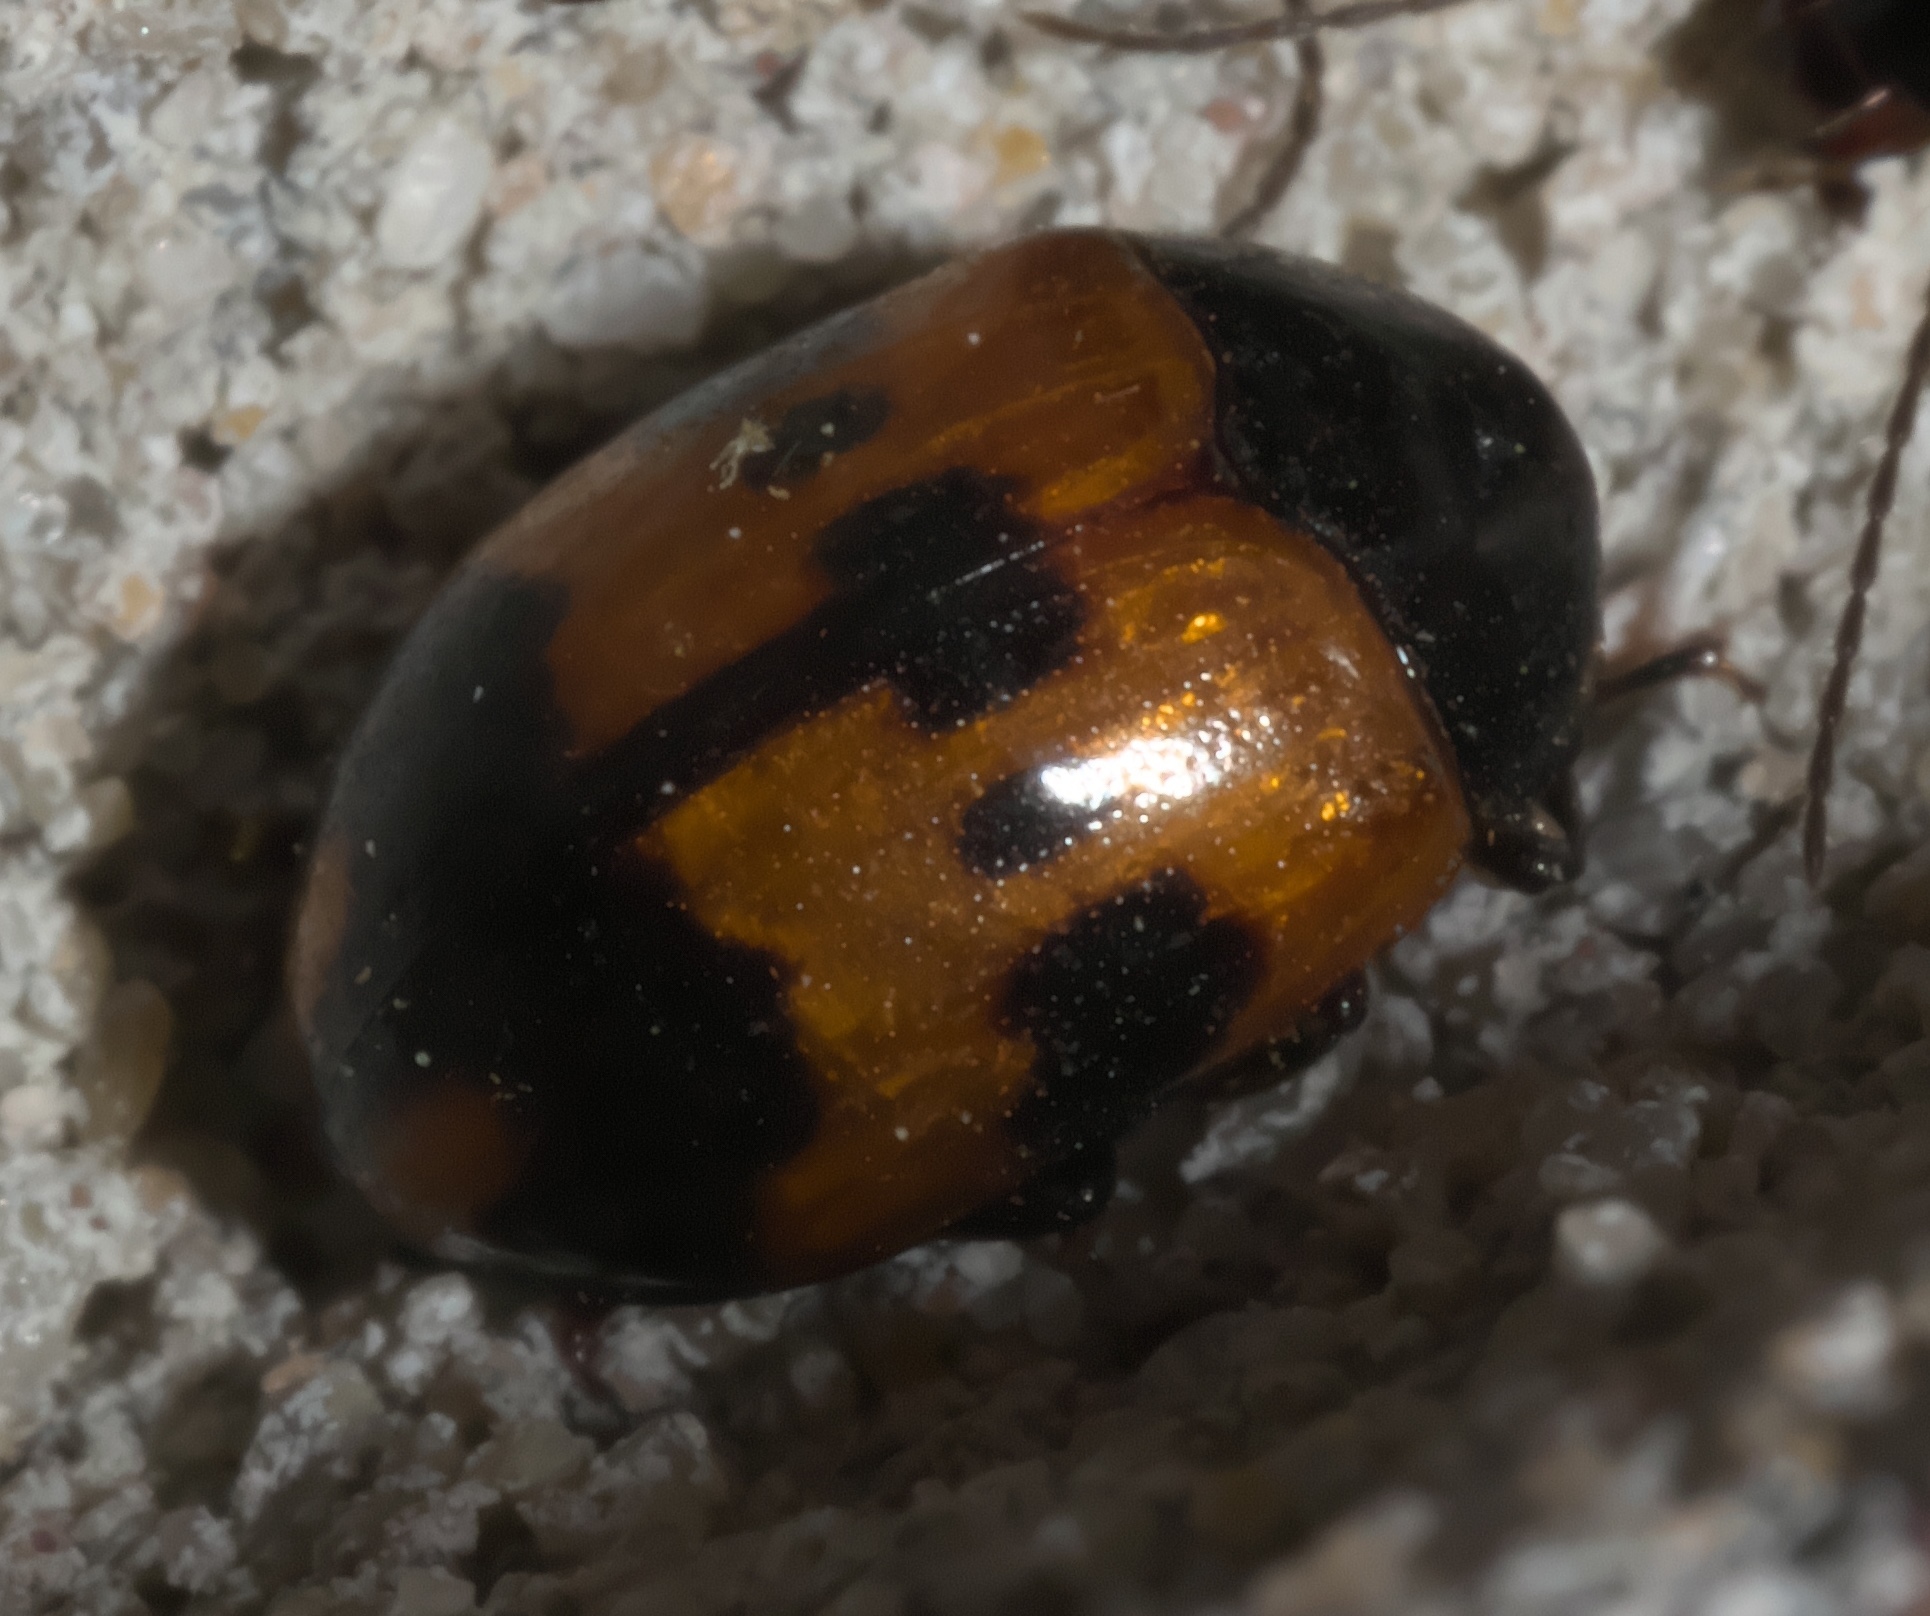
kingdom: Animalia
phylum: Arthropoda
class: Insecta
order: Coleoptera
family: Tenebrionidae
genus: Diaperis
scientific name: Diaperis nigronotata
